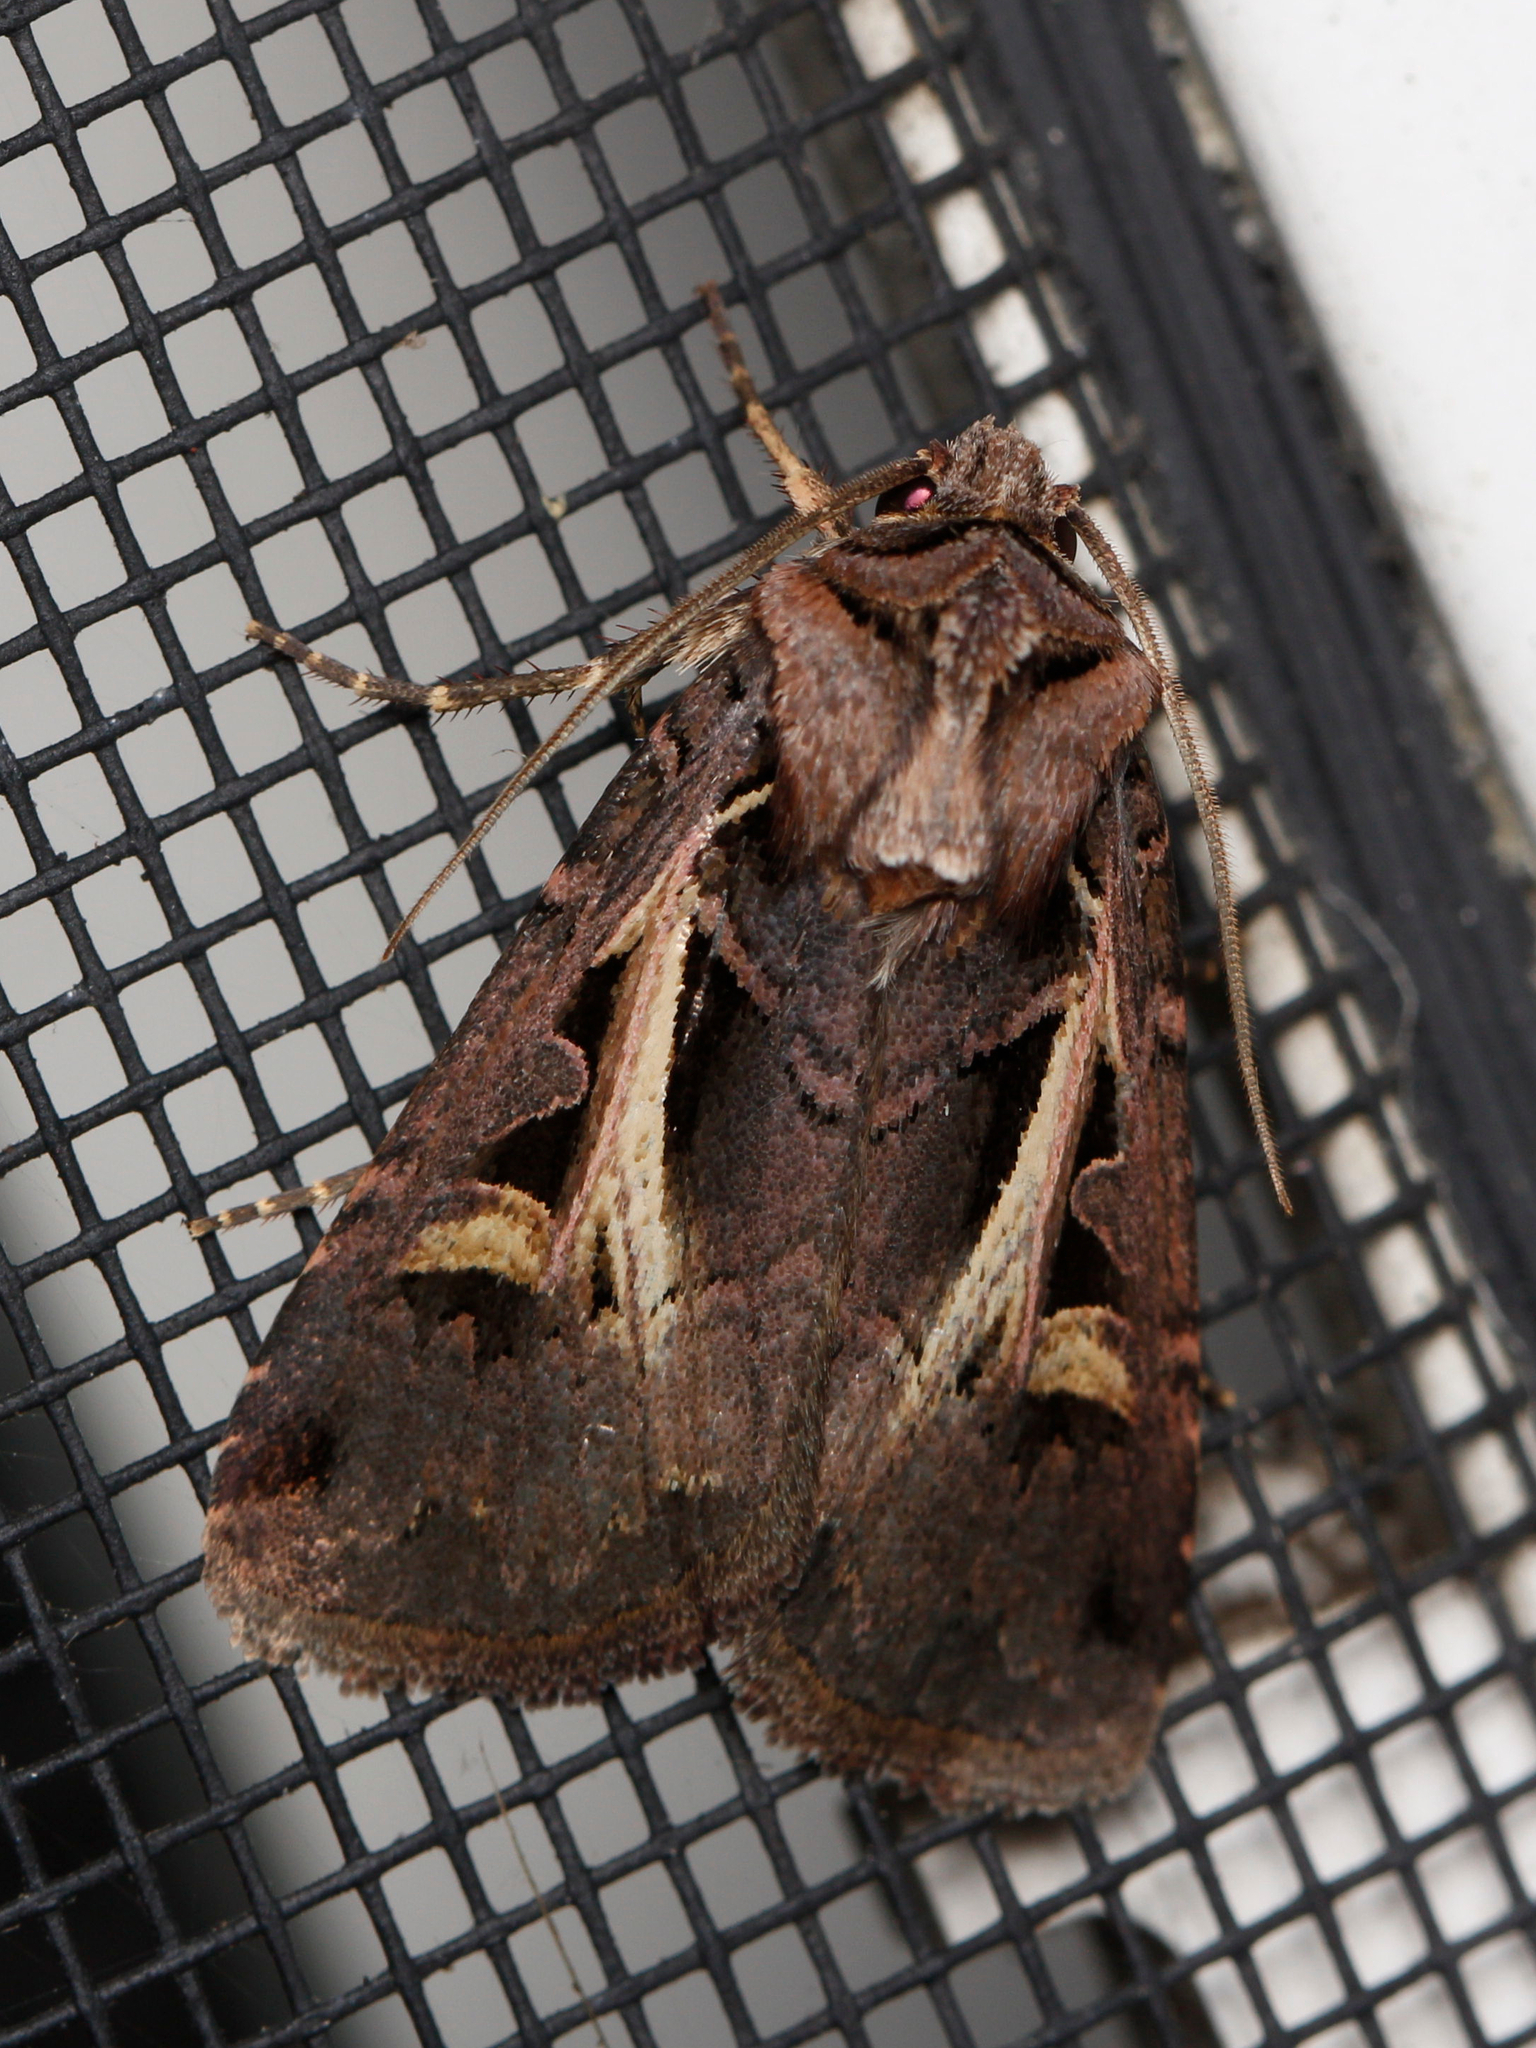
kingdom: Animalia
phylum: Arthropoda
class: Insecta
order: Lepidoptera
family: Noctuidae
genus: Feltia
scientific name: Feltia herilis
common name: Master's dart
